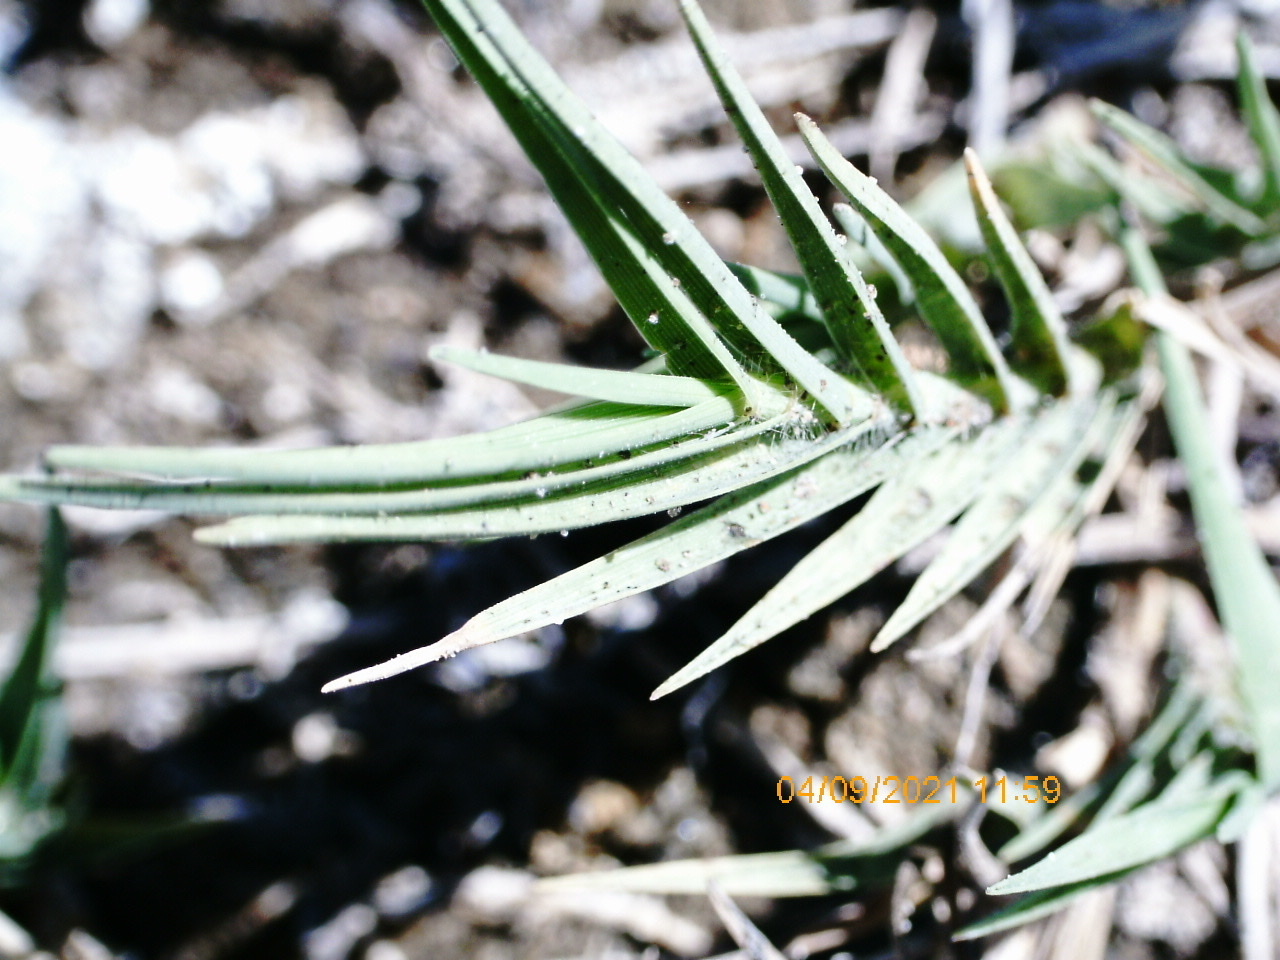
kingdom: Plantae
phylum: Tracheophyta
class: Liliopsida
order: Poales
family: Poaceae
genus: Distichlis
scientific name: Distichlis spicata
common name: Saltgrass
